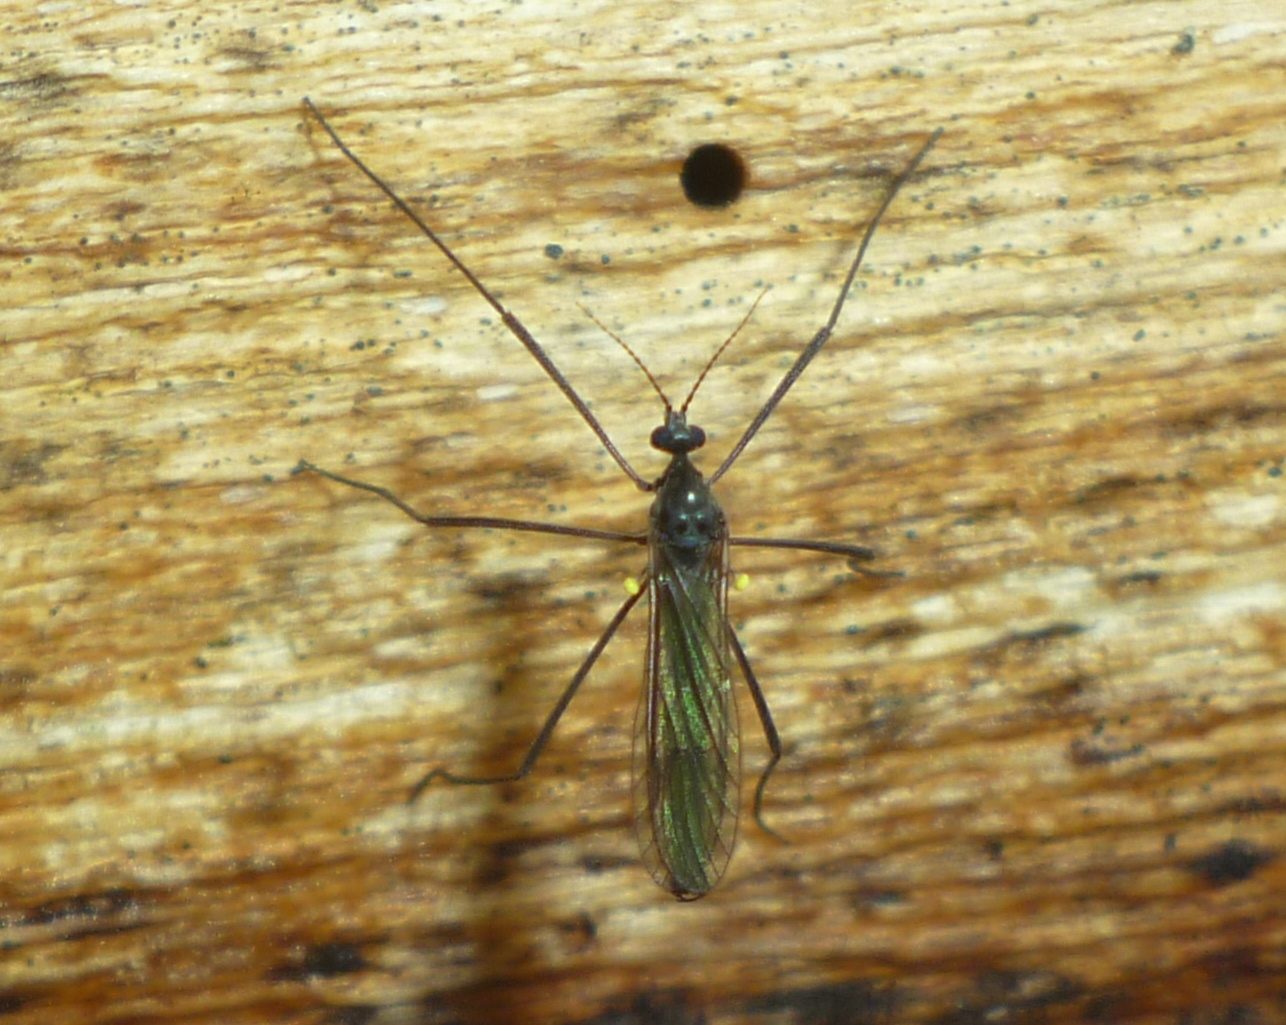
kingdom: Animalia
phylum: Arthropoda
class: Insecta
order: Diptera
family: Limoniidae
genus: Gnophomyia
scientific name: Gnophomyia tristissima
